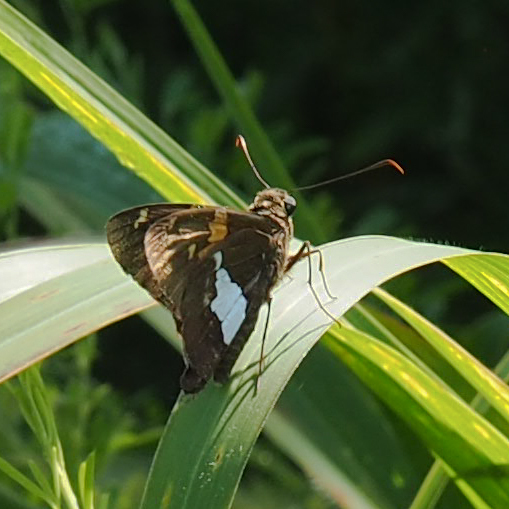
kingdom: Animalia
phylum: Arthropoda
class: Insecta
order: Lepidoptera
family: Hesperiidae
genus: Epargyreus
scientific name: Epargyreus clarus
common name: Silver-spotted skipper
